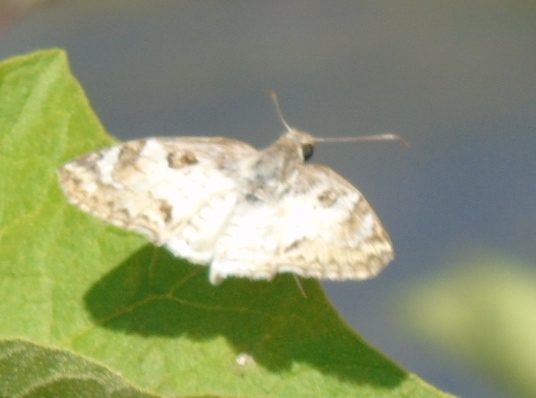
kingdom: Animalia
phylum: Arthropoda
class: Insecta
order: Lepidoptera
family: Hesperiidae
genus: Polyctor
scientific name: Polyctor
